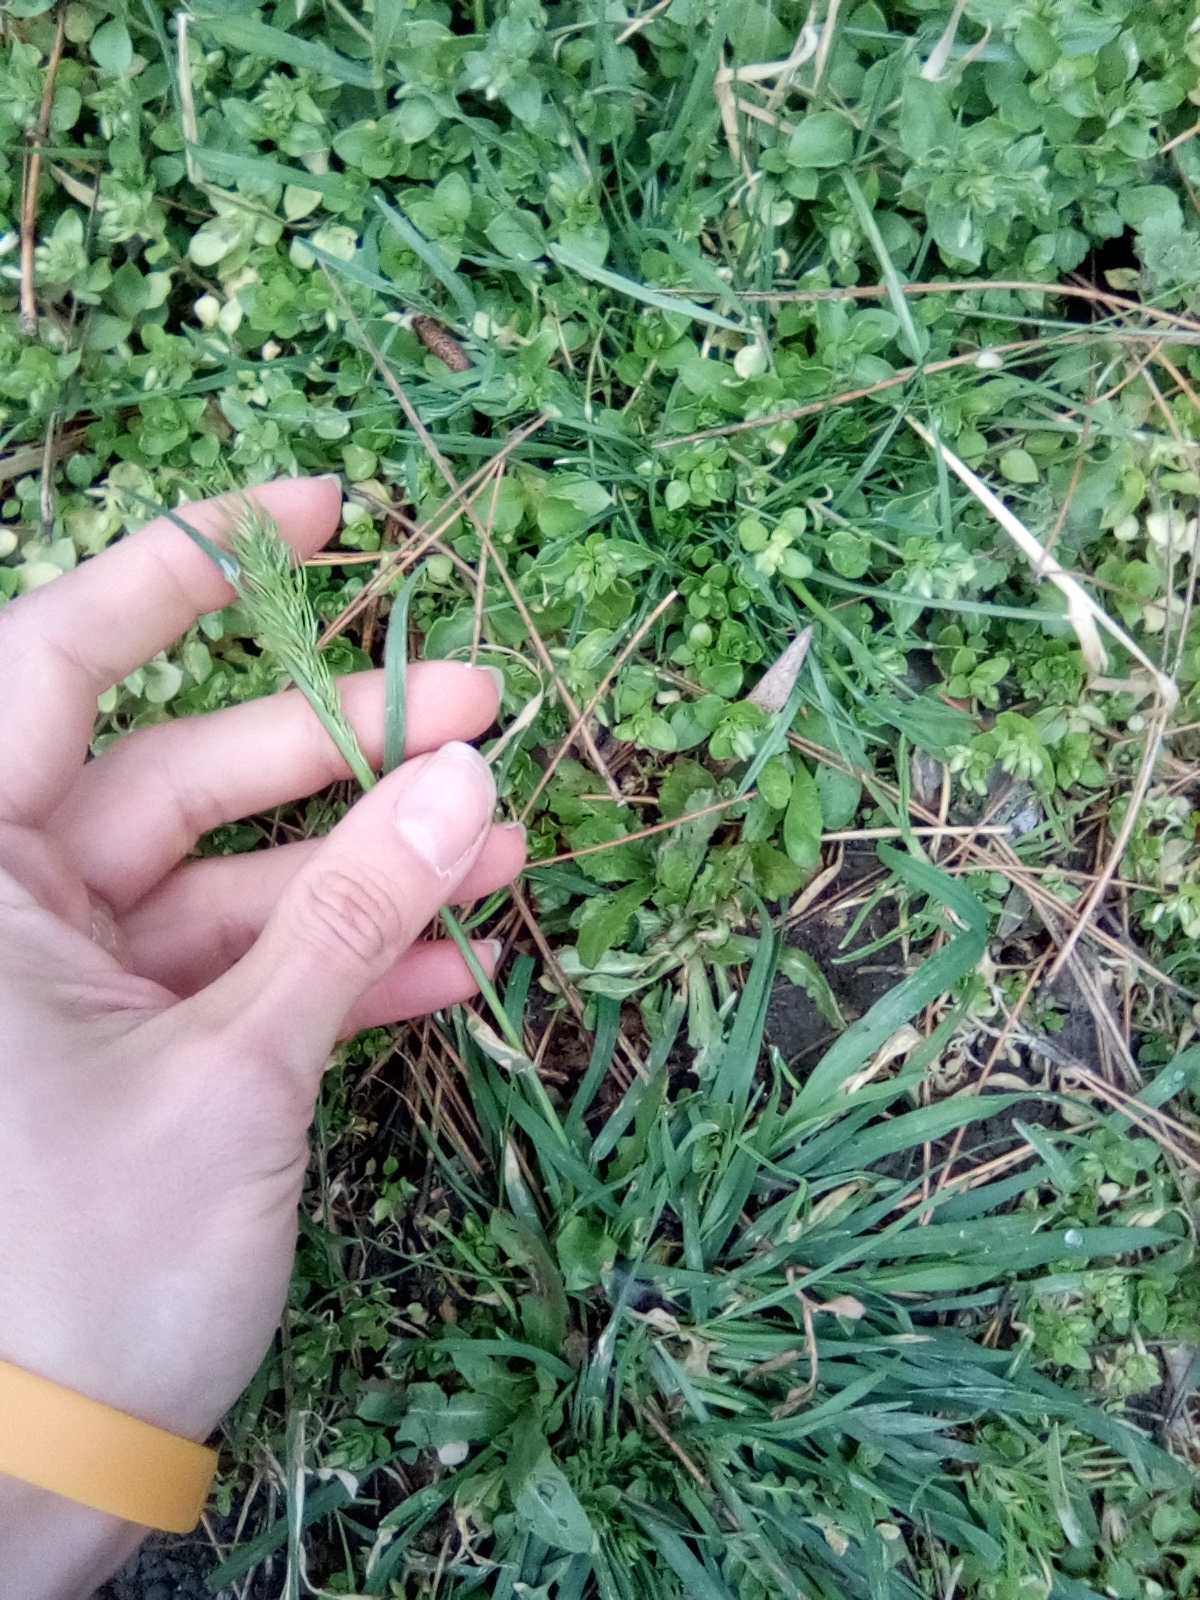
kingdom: Plantae
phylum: Tracheophyta
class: Liliopsida
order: Poales
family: Poaceae
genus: Dactylis
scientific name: Dactylis glomerata
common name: Orchardgrass
